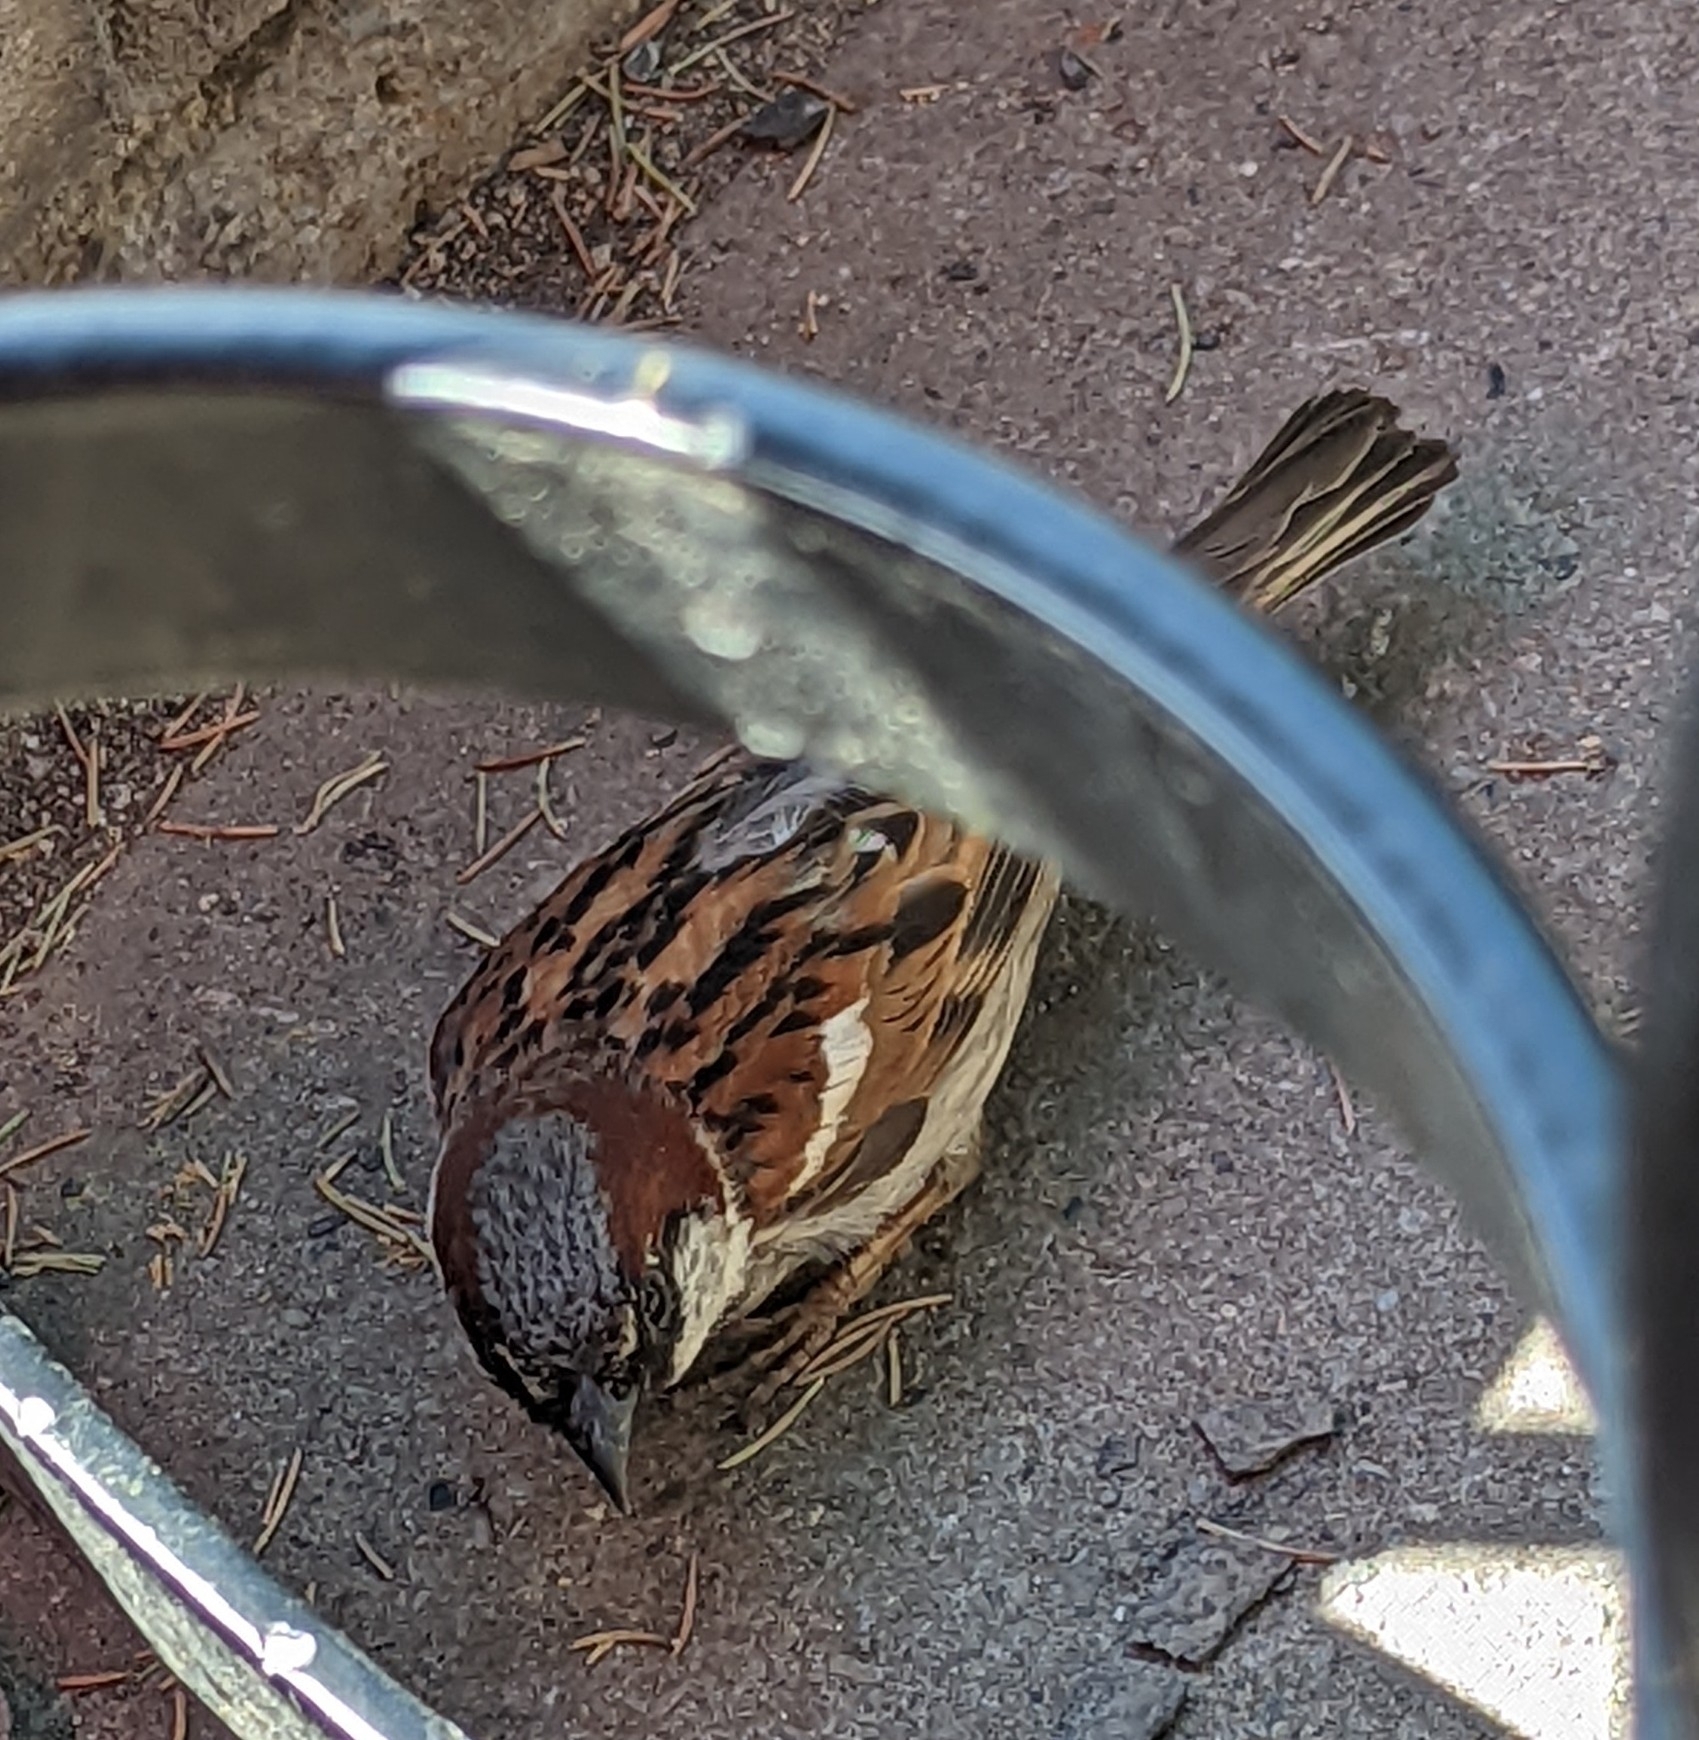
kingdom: Animalia
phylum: Chordata
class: Aves
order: Passeriformes
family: Passeridae
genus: Passer
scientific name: Passer domesticus
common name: House sparrow
